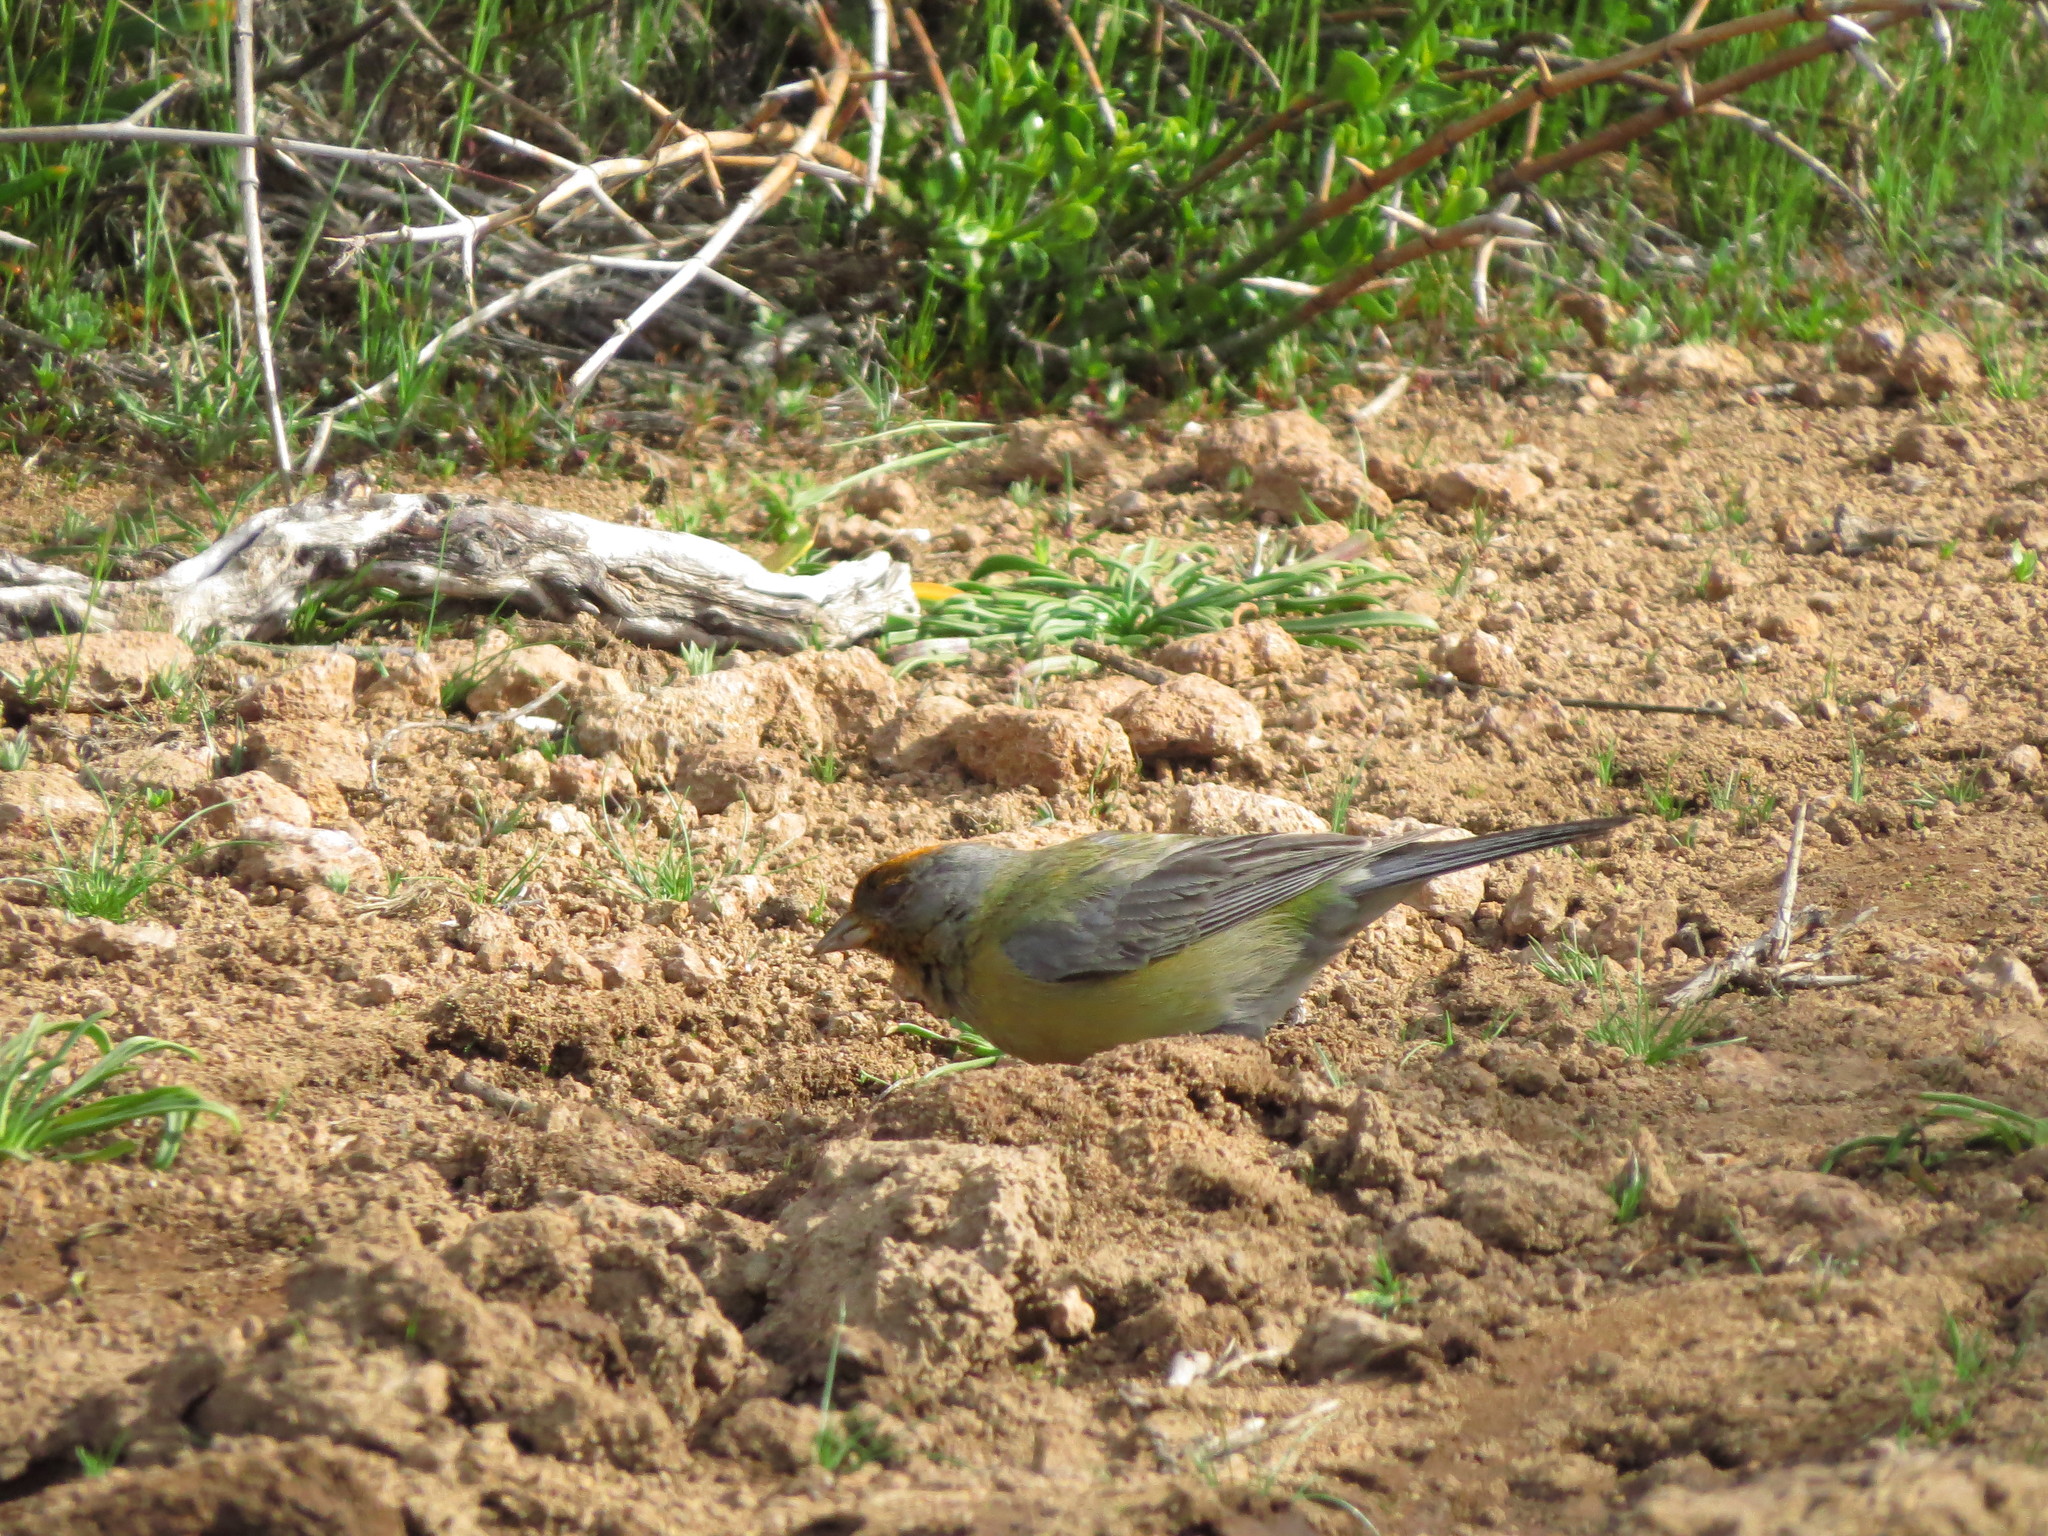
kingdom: Animalia
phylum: Chordata
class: Aves
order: Passeriformes
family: Thraupidae
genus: Phrygilus
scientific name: Phrygilus gayi
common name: Grey-hooded sierra finch
